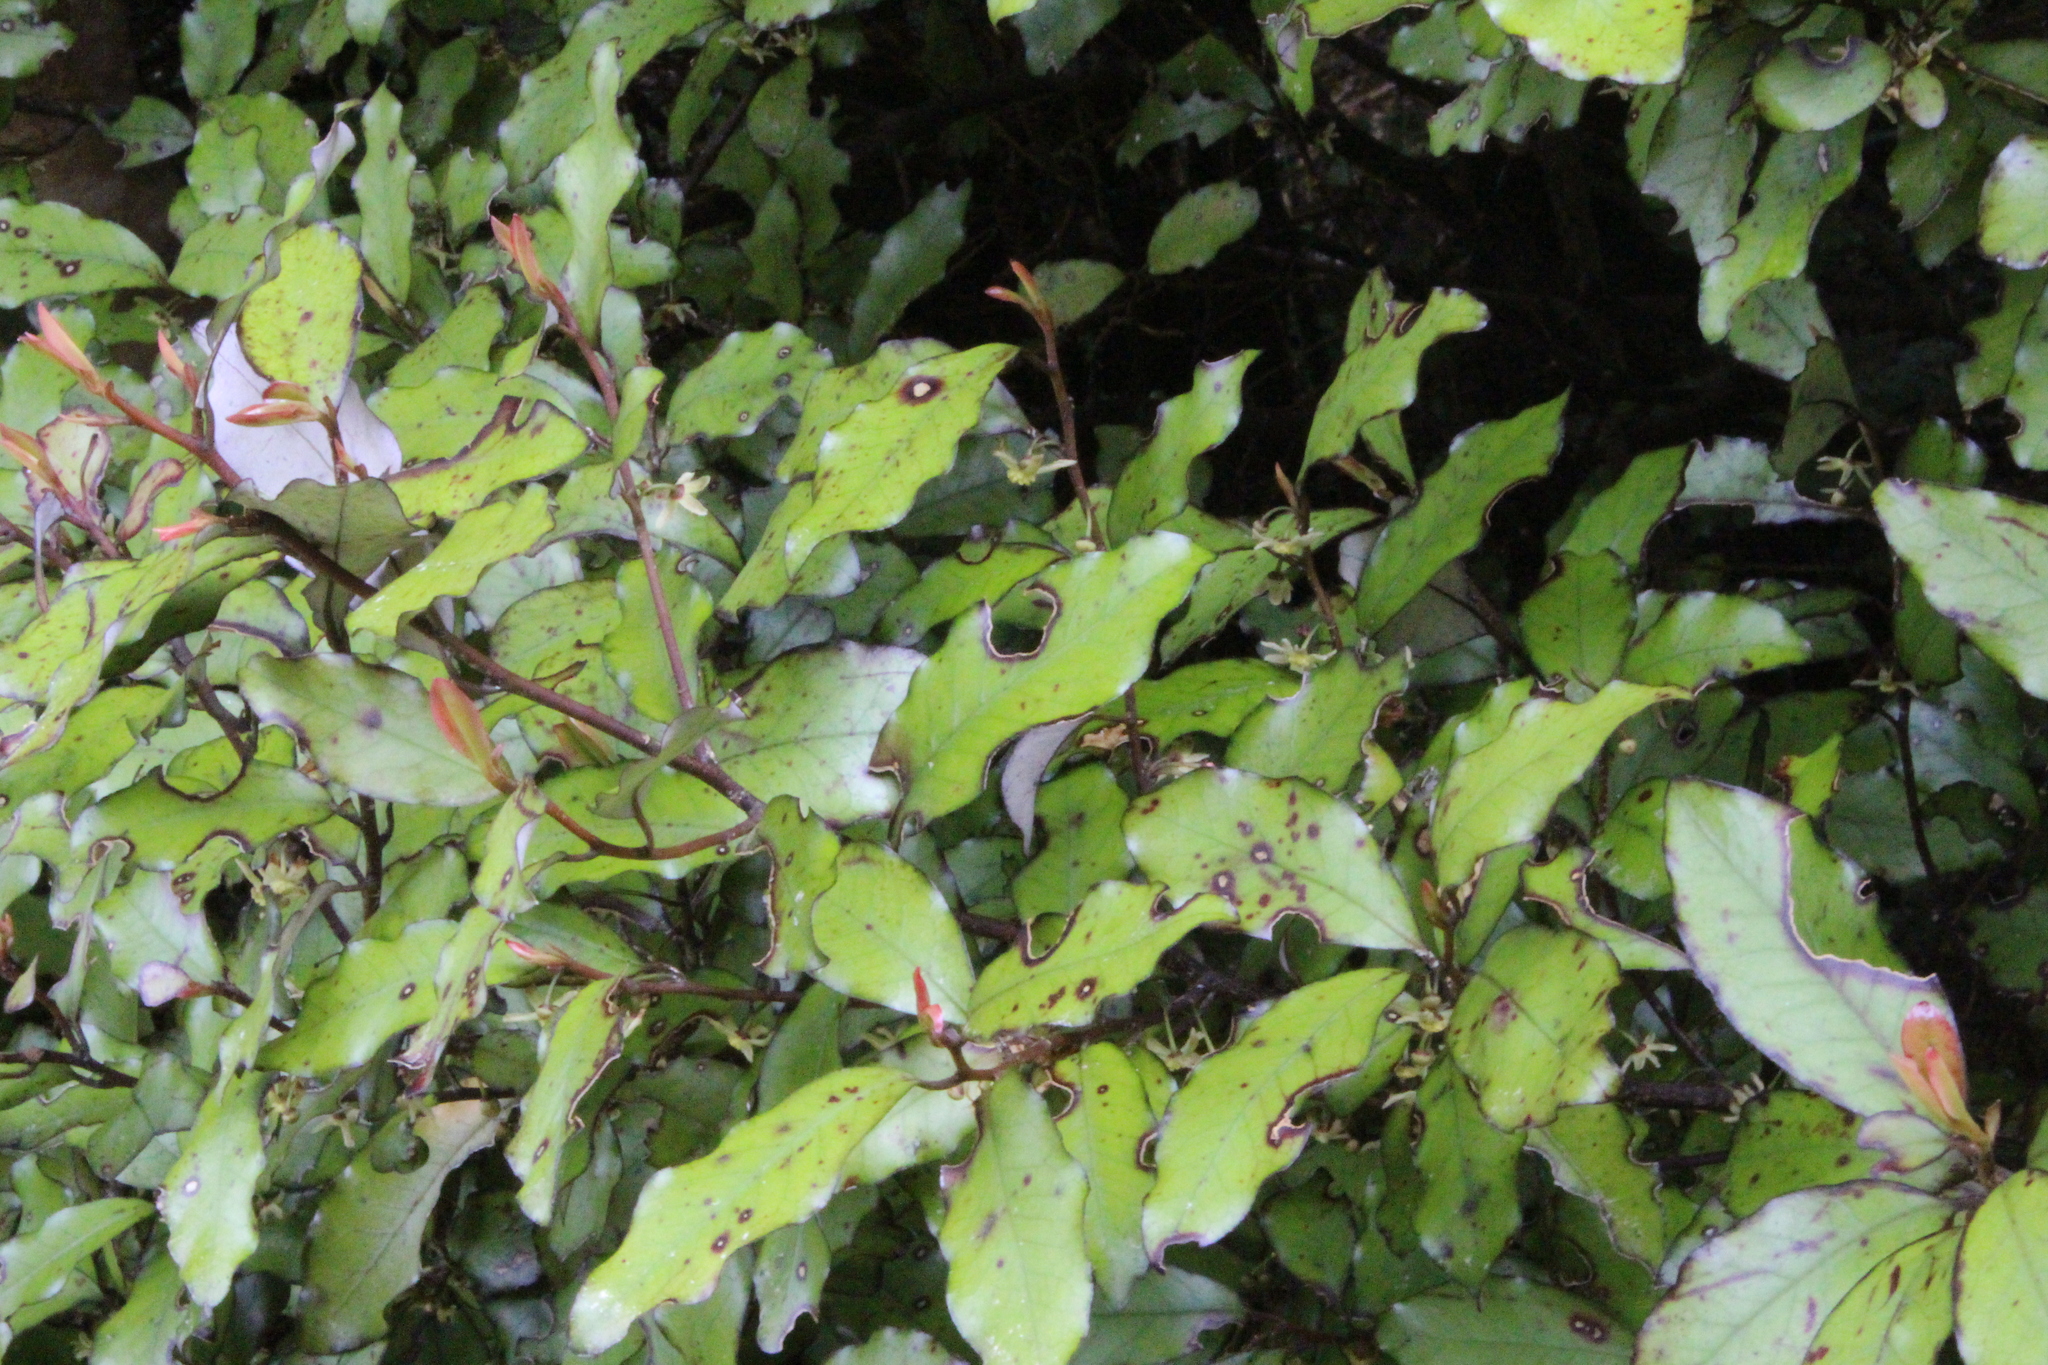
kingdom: Plantae
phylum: Tracheophyta
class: Magnoliopsida
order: Canellales
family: Winteraceae
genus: Pseudowintera
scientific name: Pseudowintera colorata
